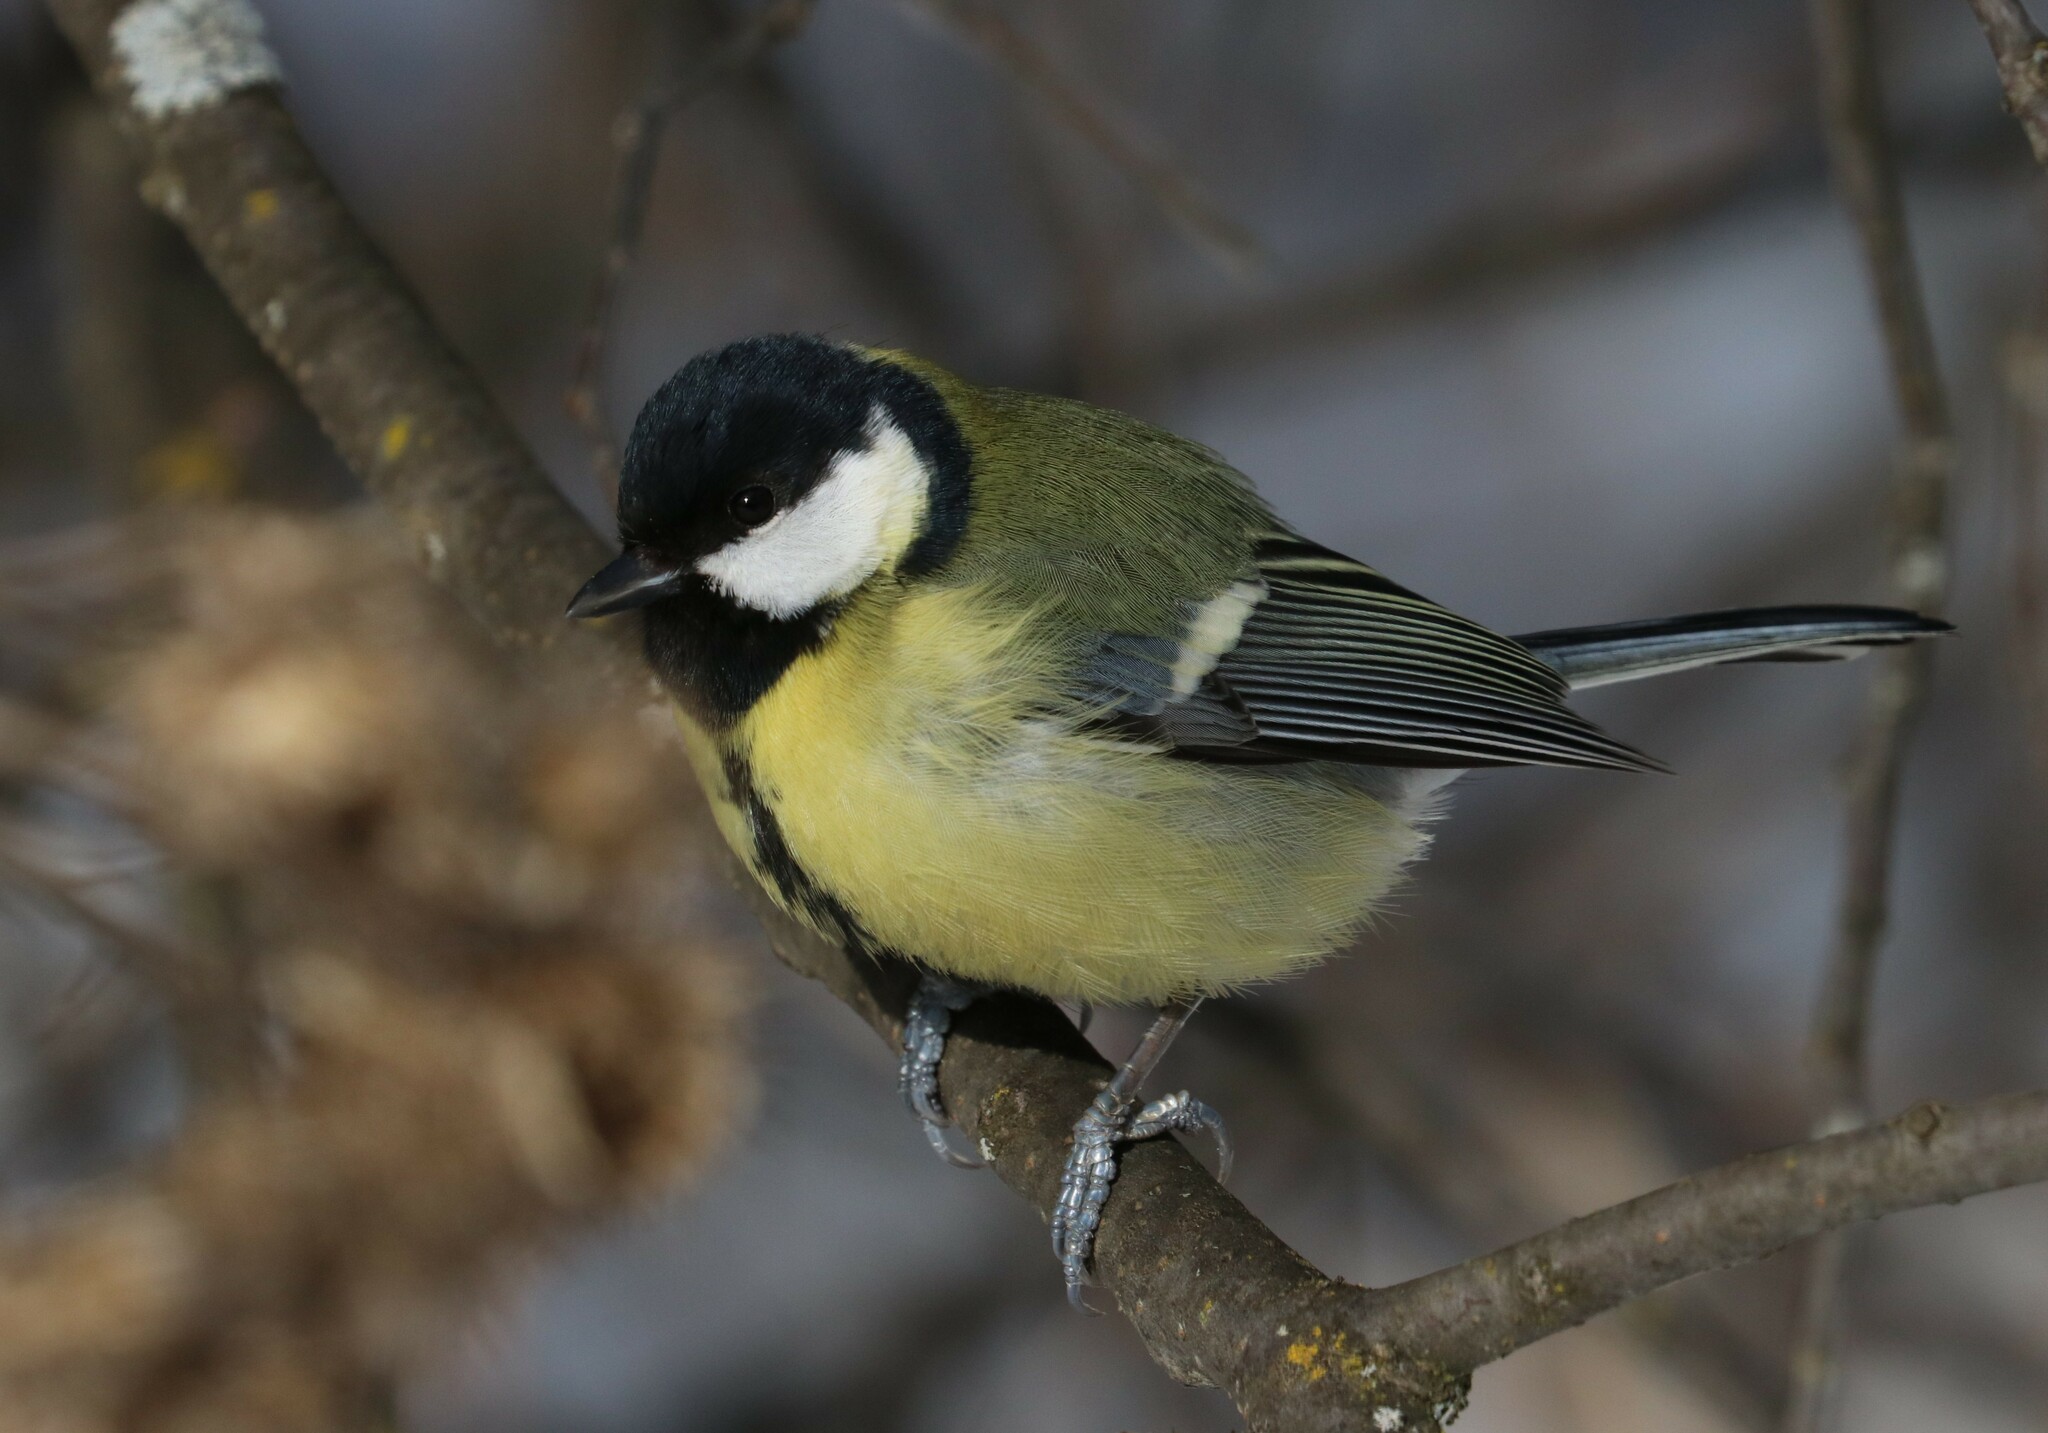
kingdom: Animalia
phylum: Chordata
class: Aves
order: Passeriformes
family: Paridae
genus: Parus
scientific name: Parus major
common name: Great tit
